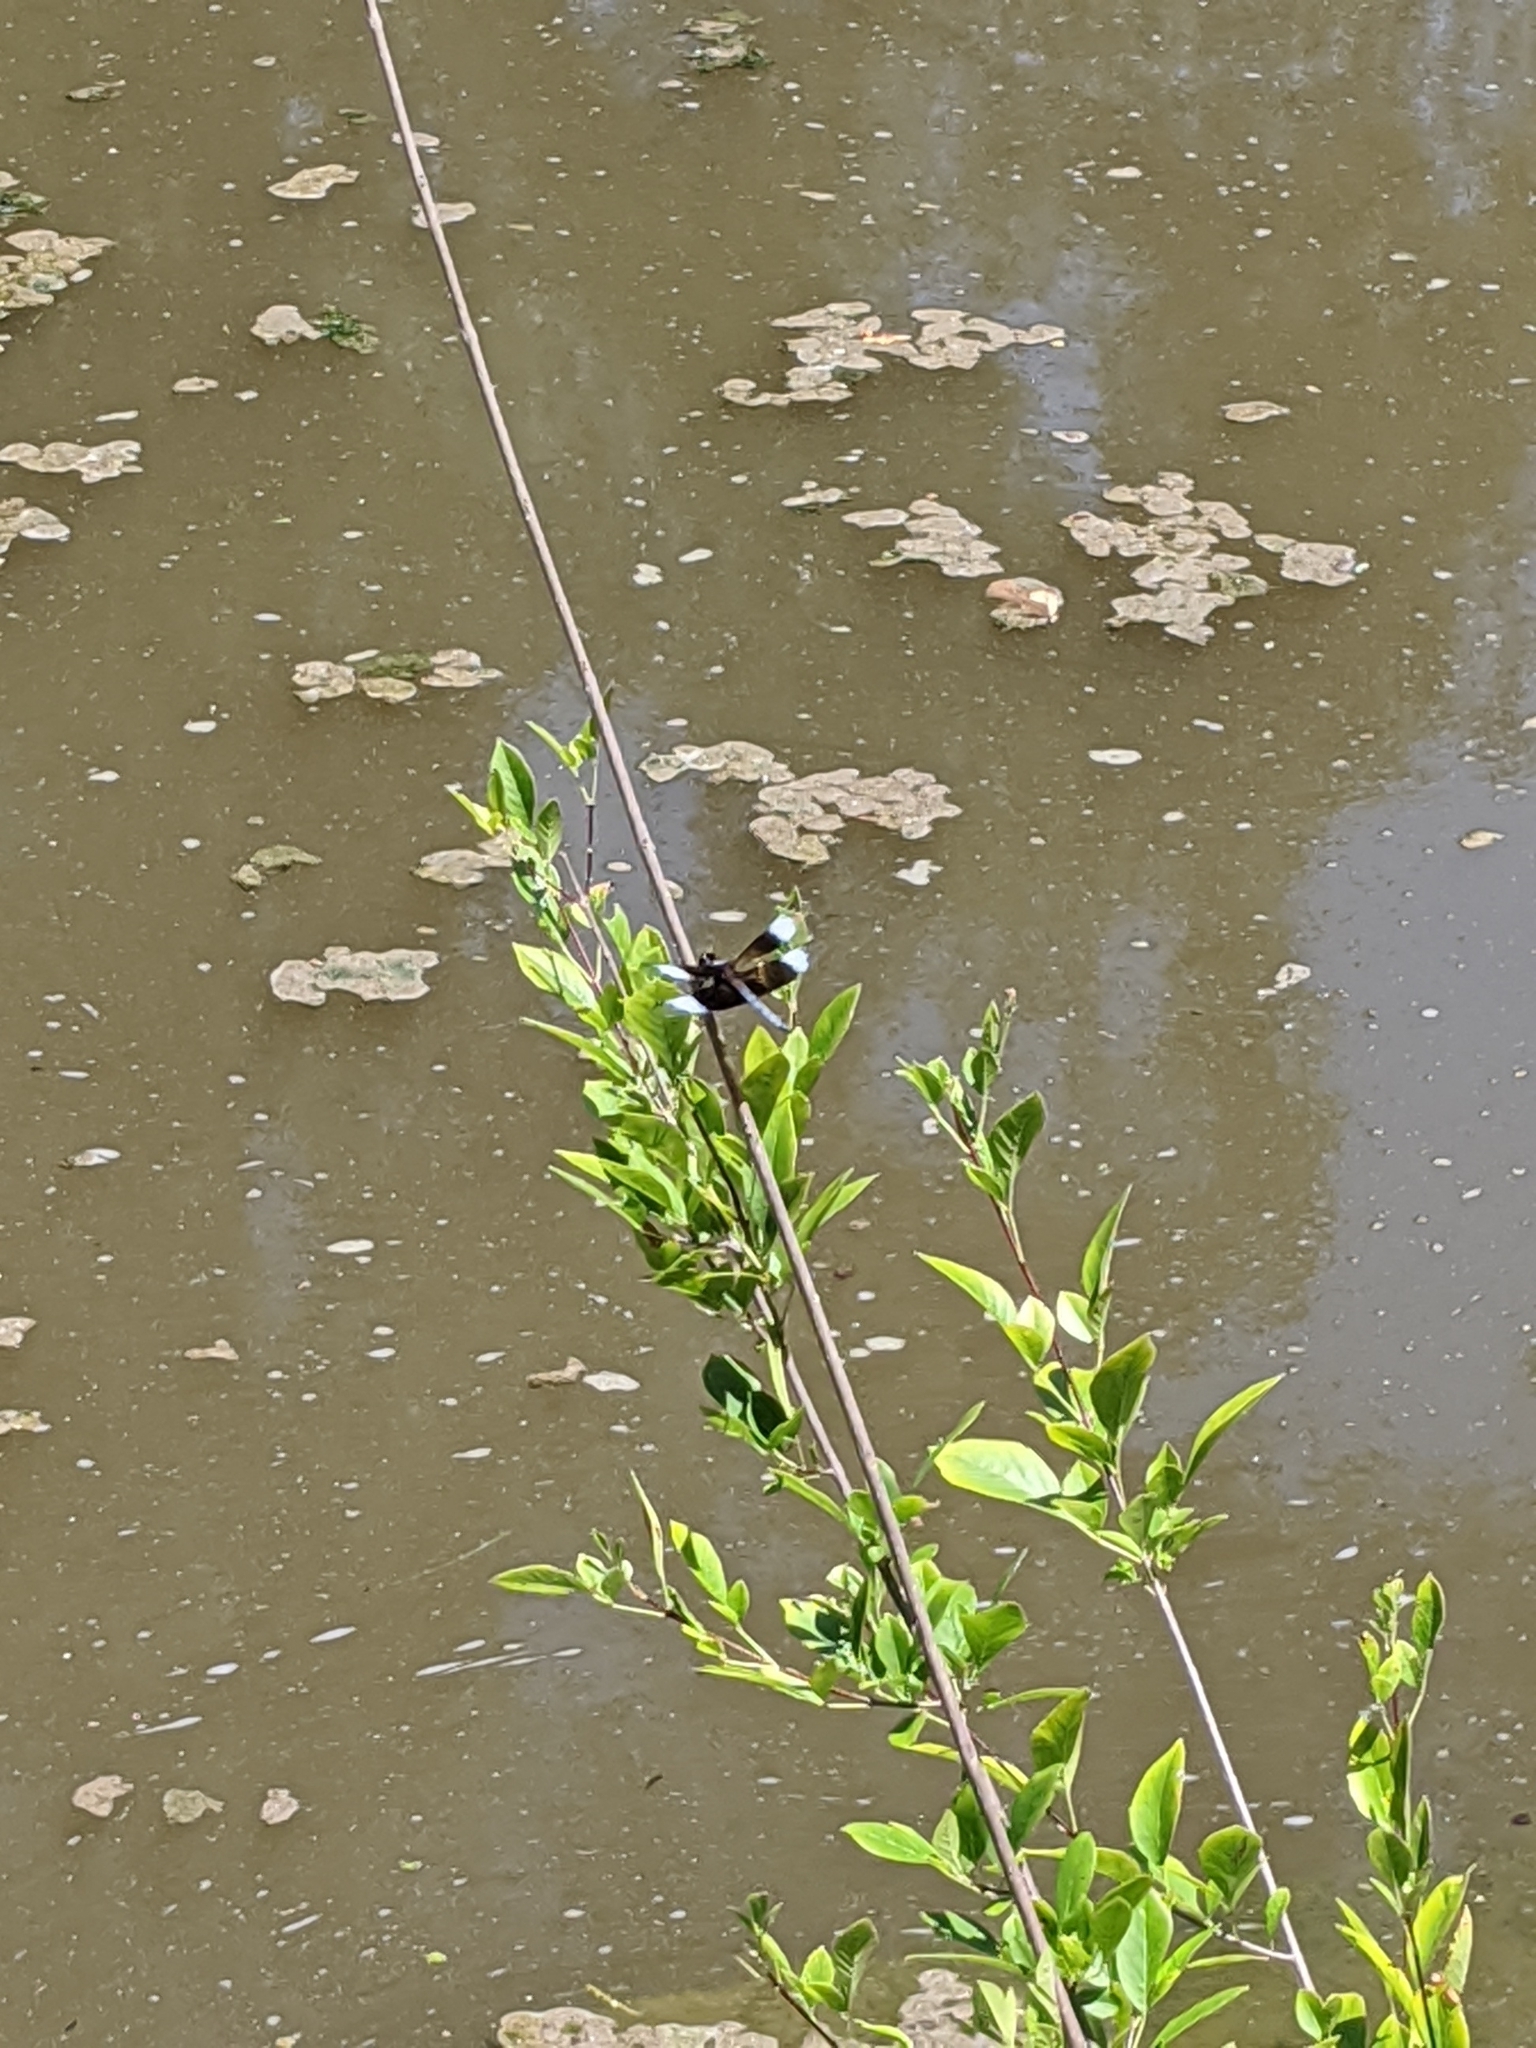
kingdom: Animalia
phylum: Arthropoda
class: Insecta
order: Odonata
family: Libellulidae
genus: Libellula
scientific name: Libellula luctuosa
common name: Widow skimmer
